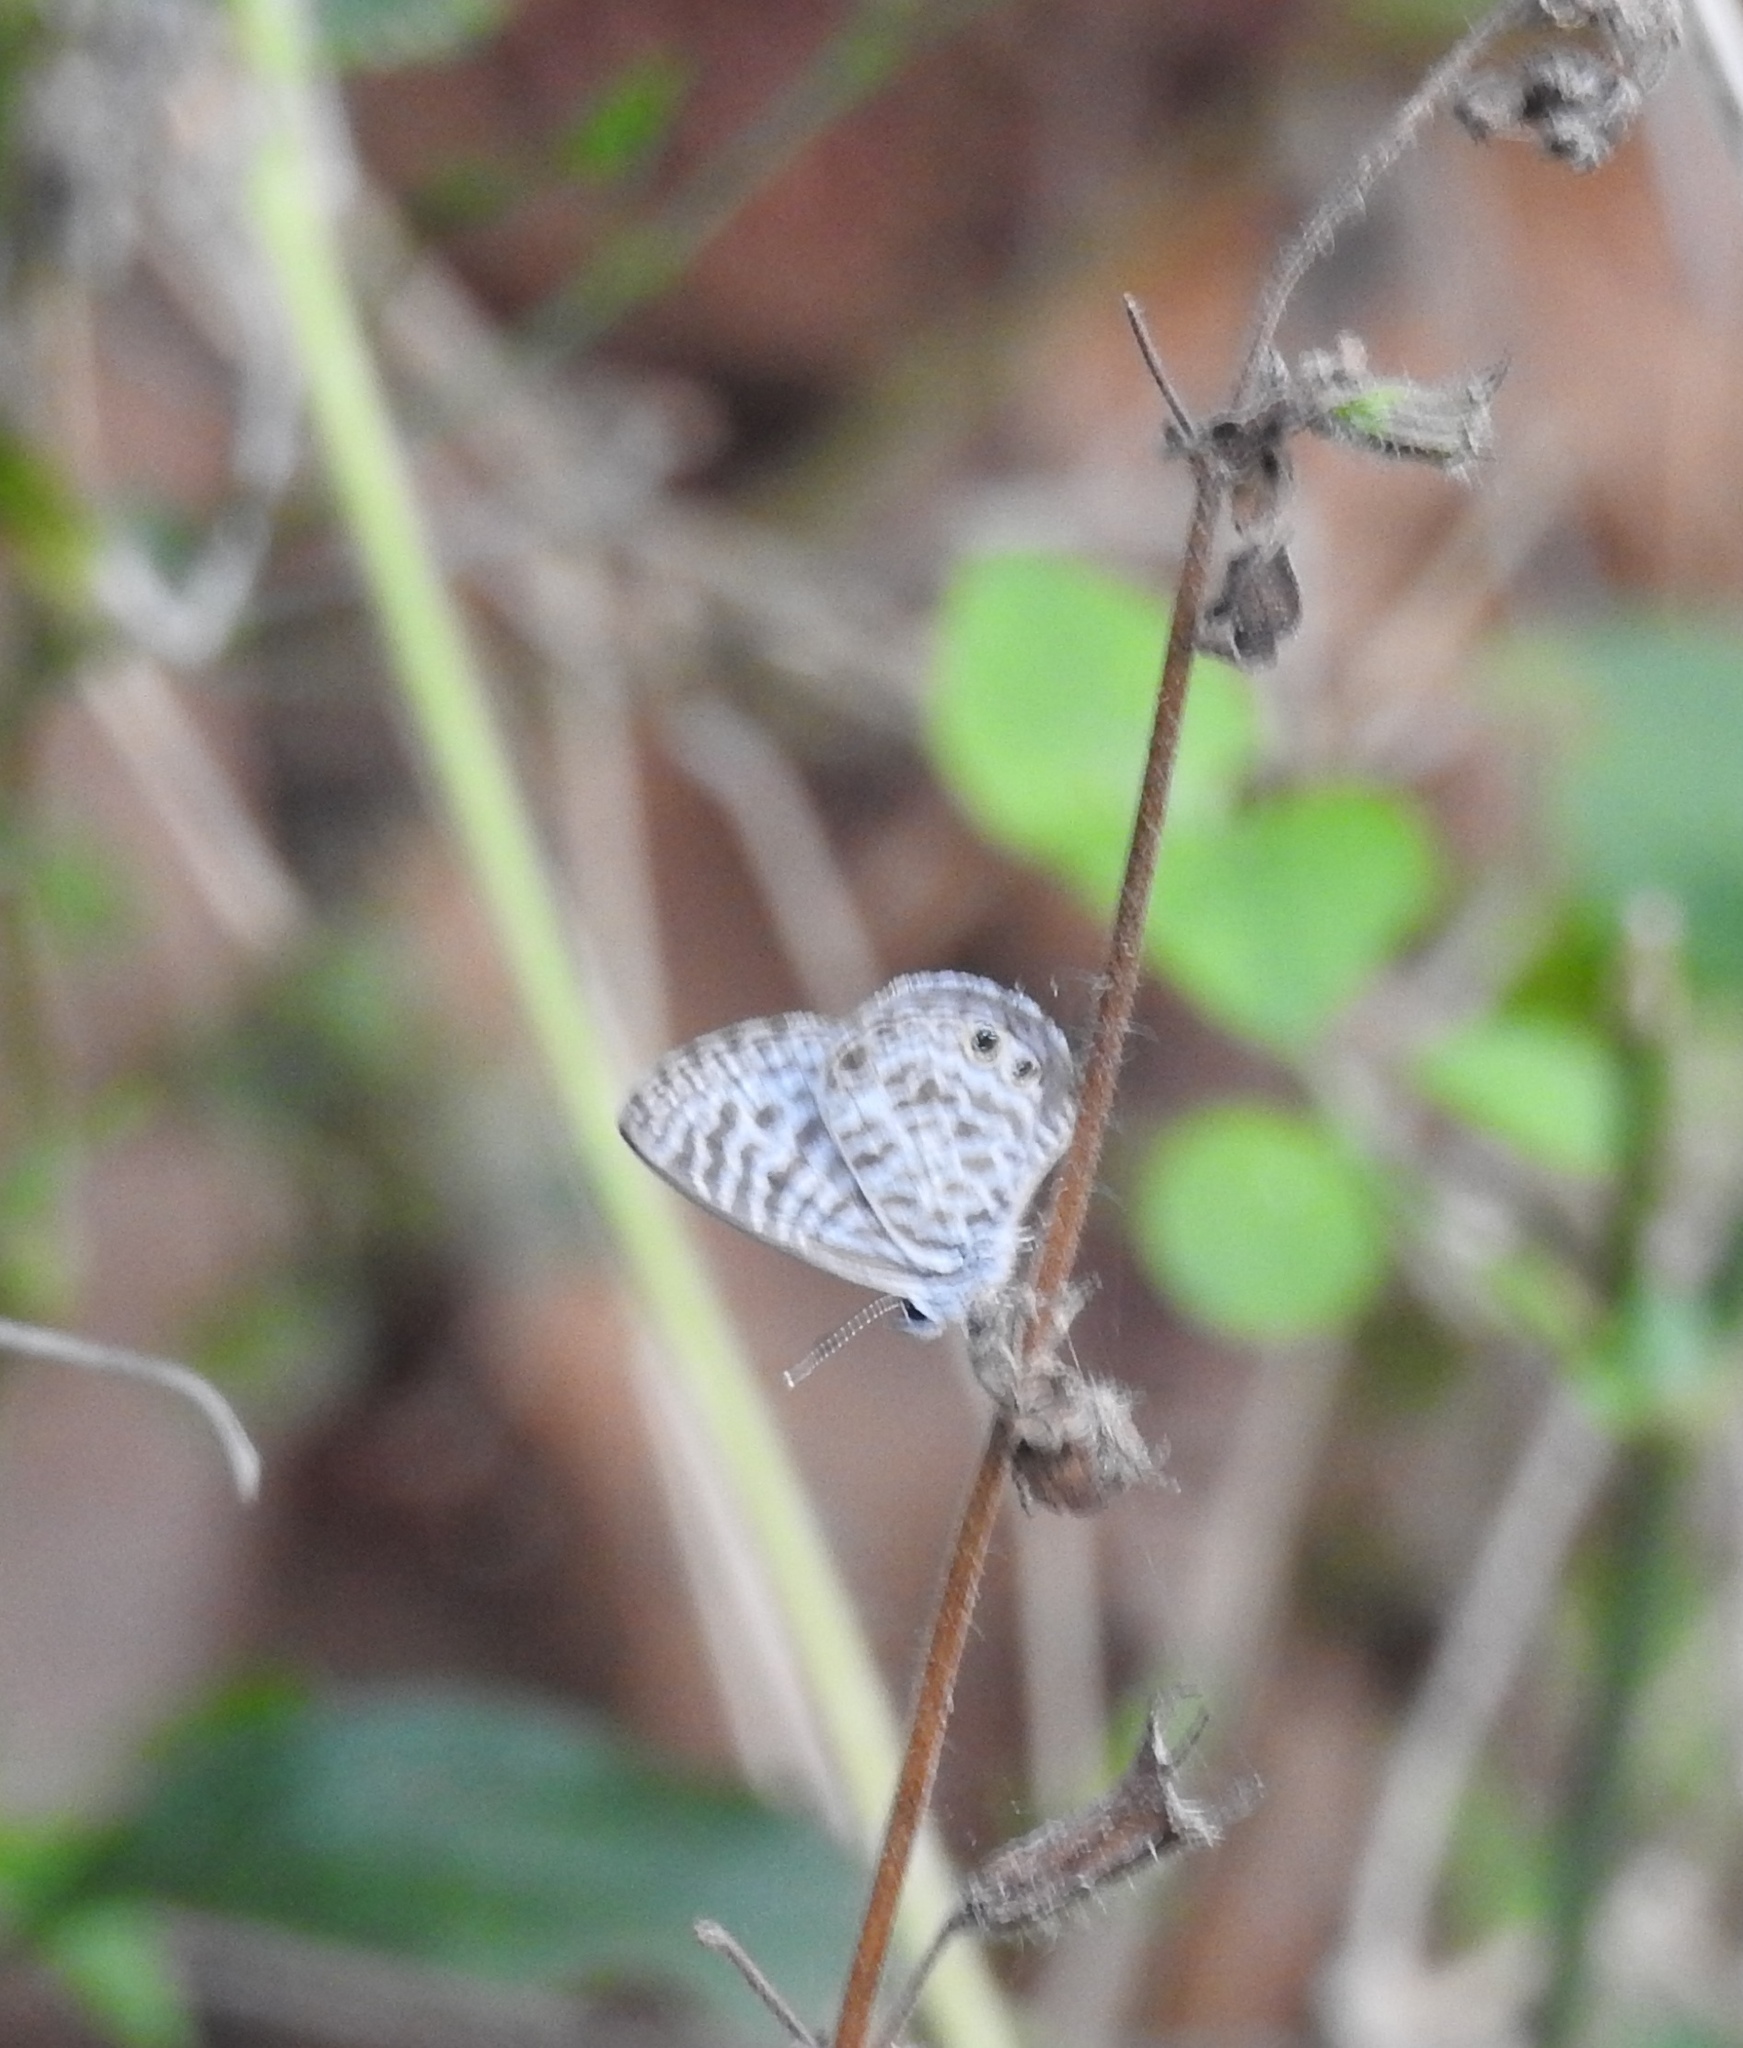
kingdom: Animalia
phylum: Arthropoda
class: Insecta
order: Lepidoptera
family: Lycaenidae
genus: Leptotes
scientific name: Leptotes plinius
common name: Zebra blue
